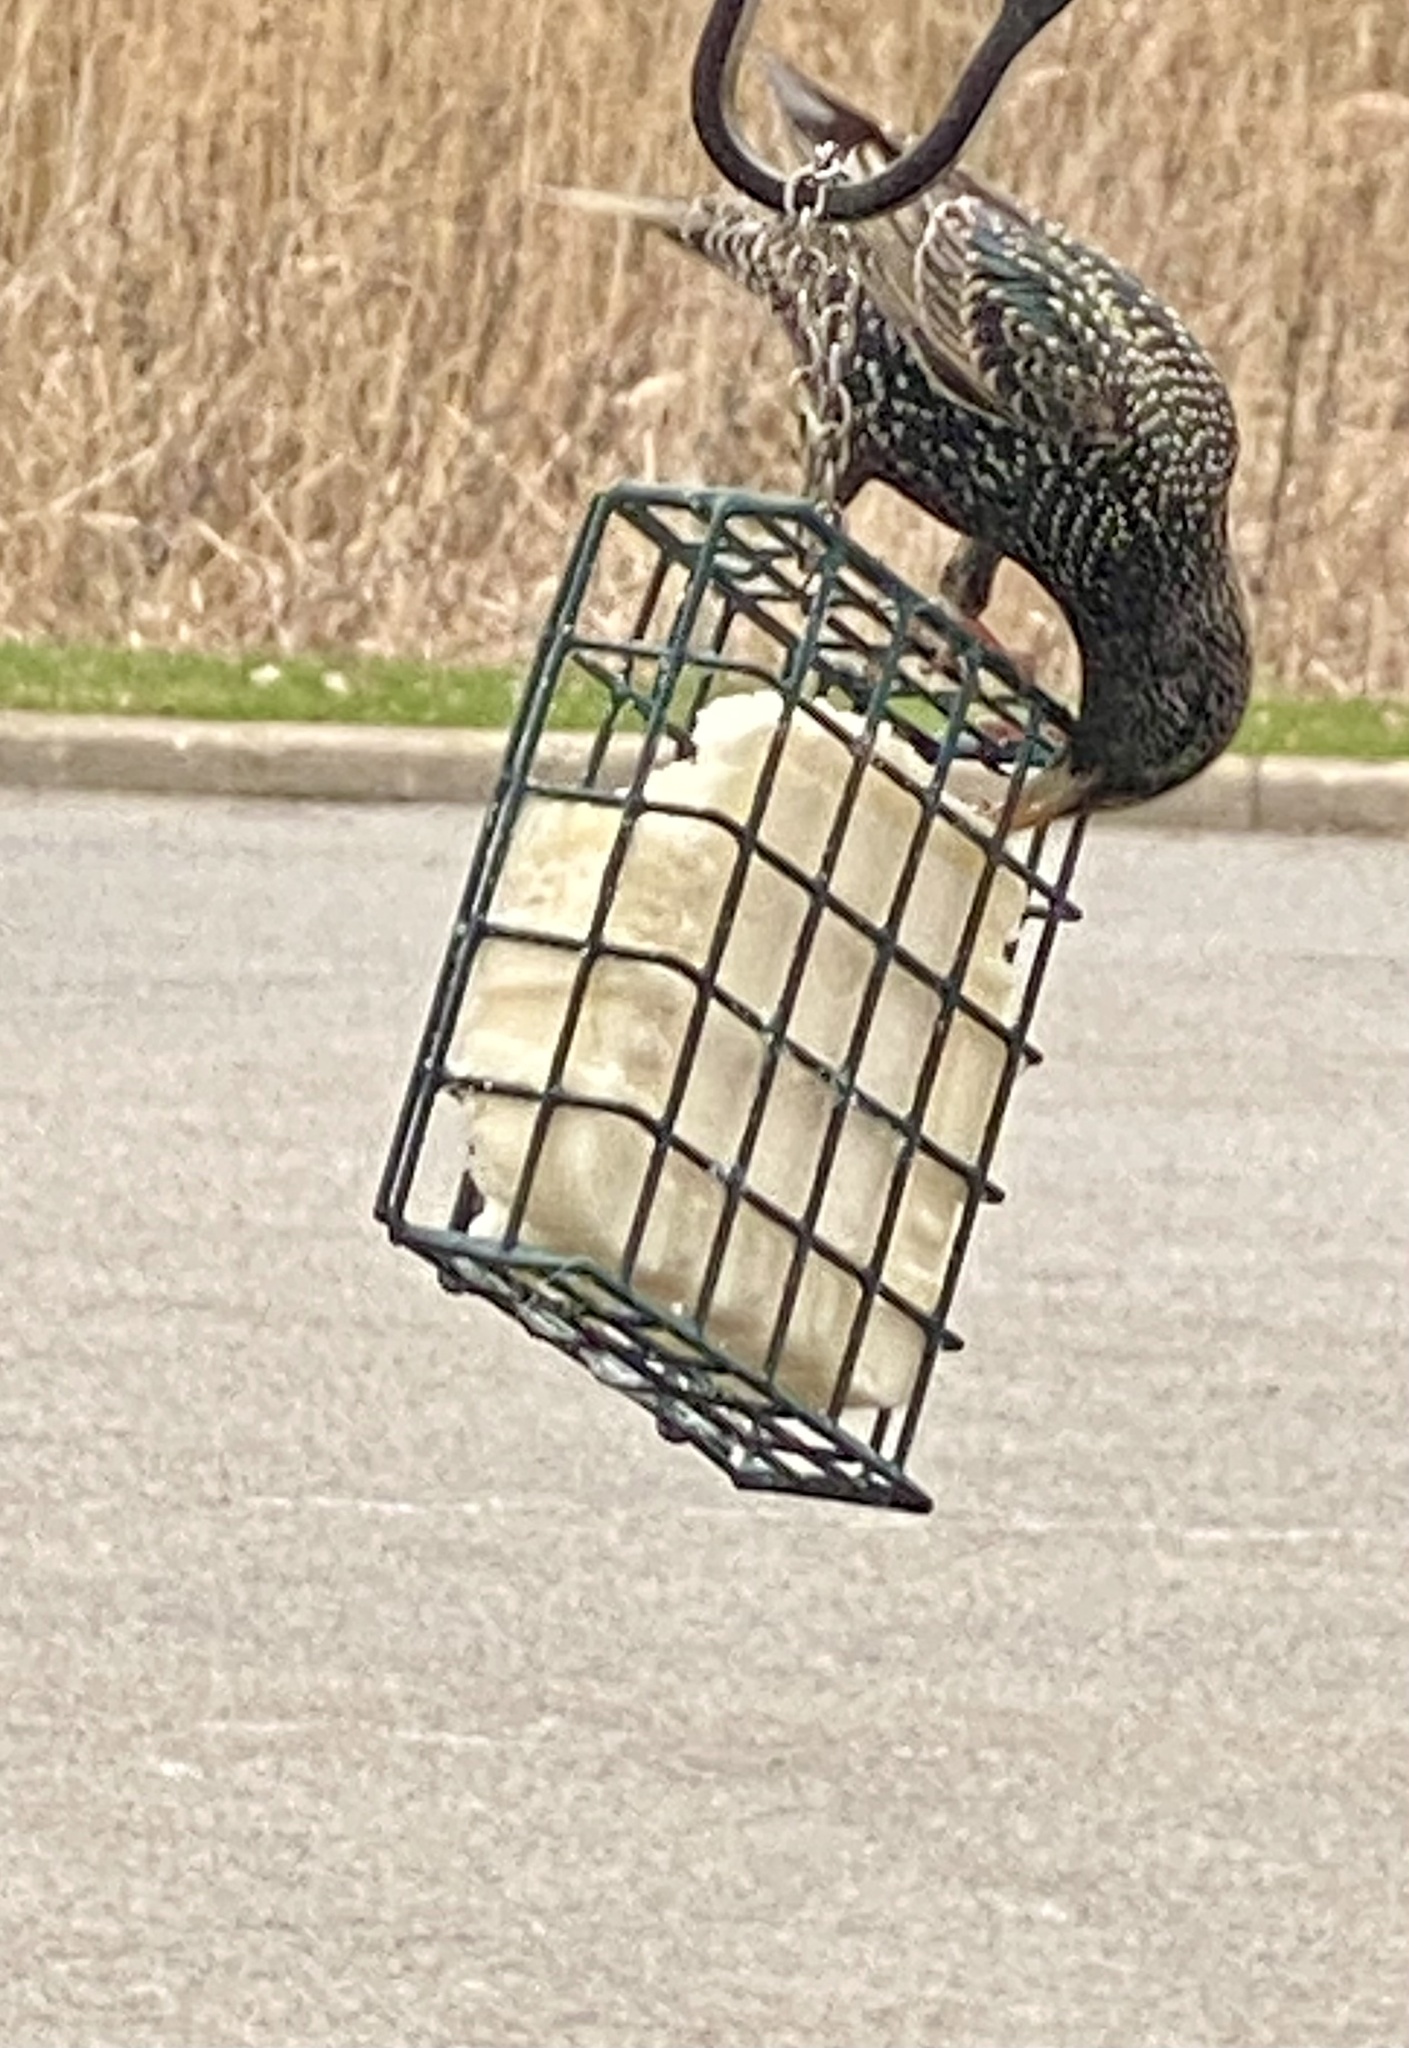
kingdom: Animalia
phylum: Chordata
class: Aves
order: Passeriformes
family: Sturnidae
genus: Sturnus
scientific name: Sturnus vulgaris
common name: Common starling
